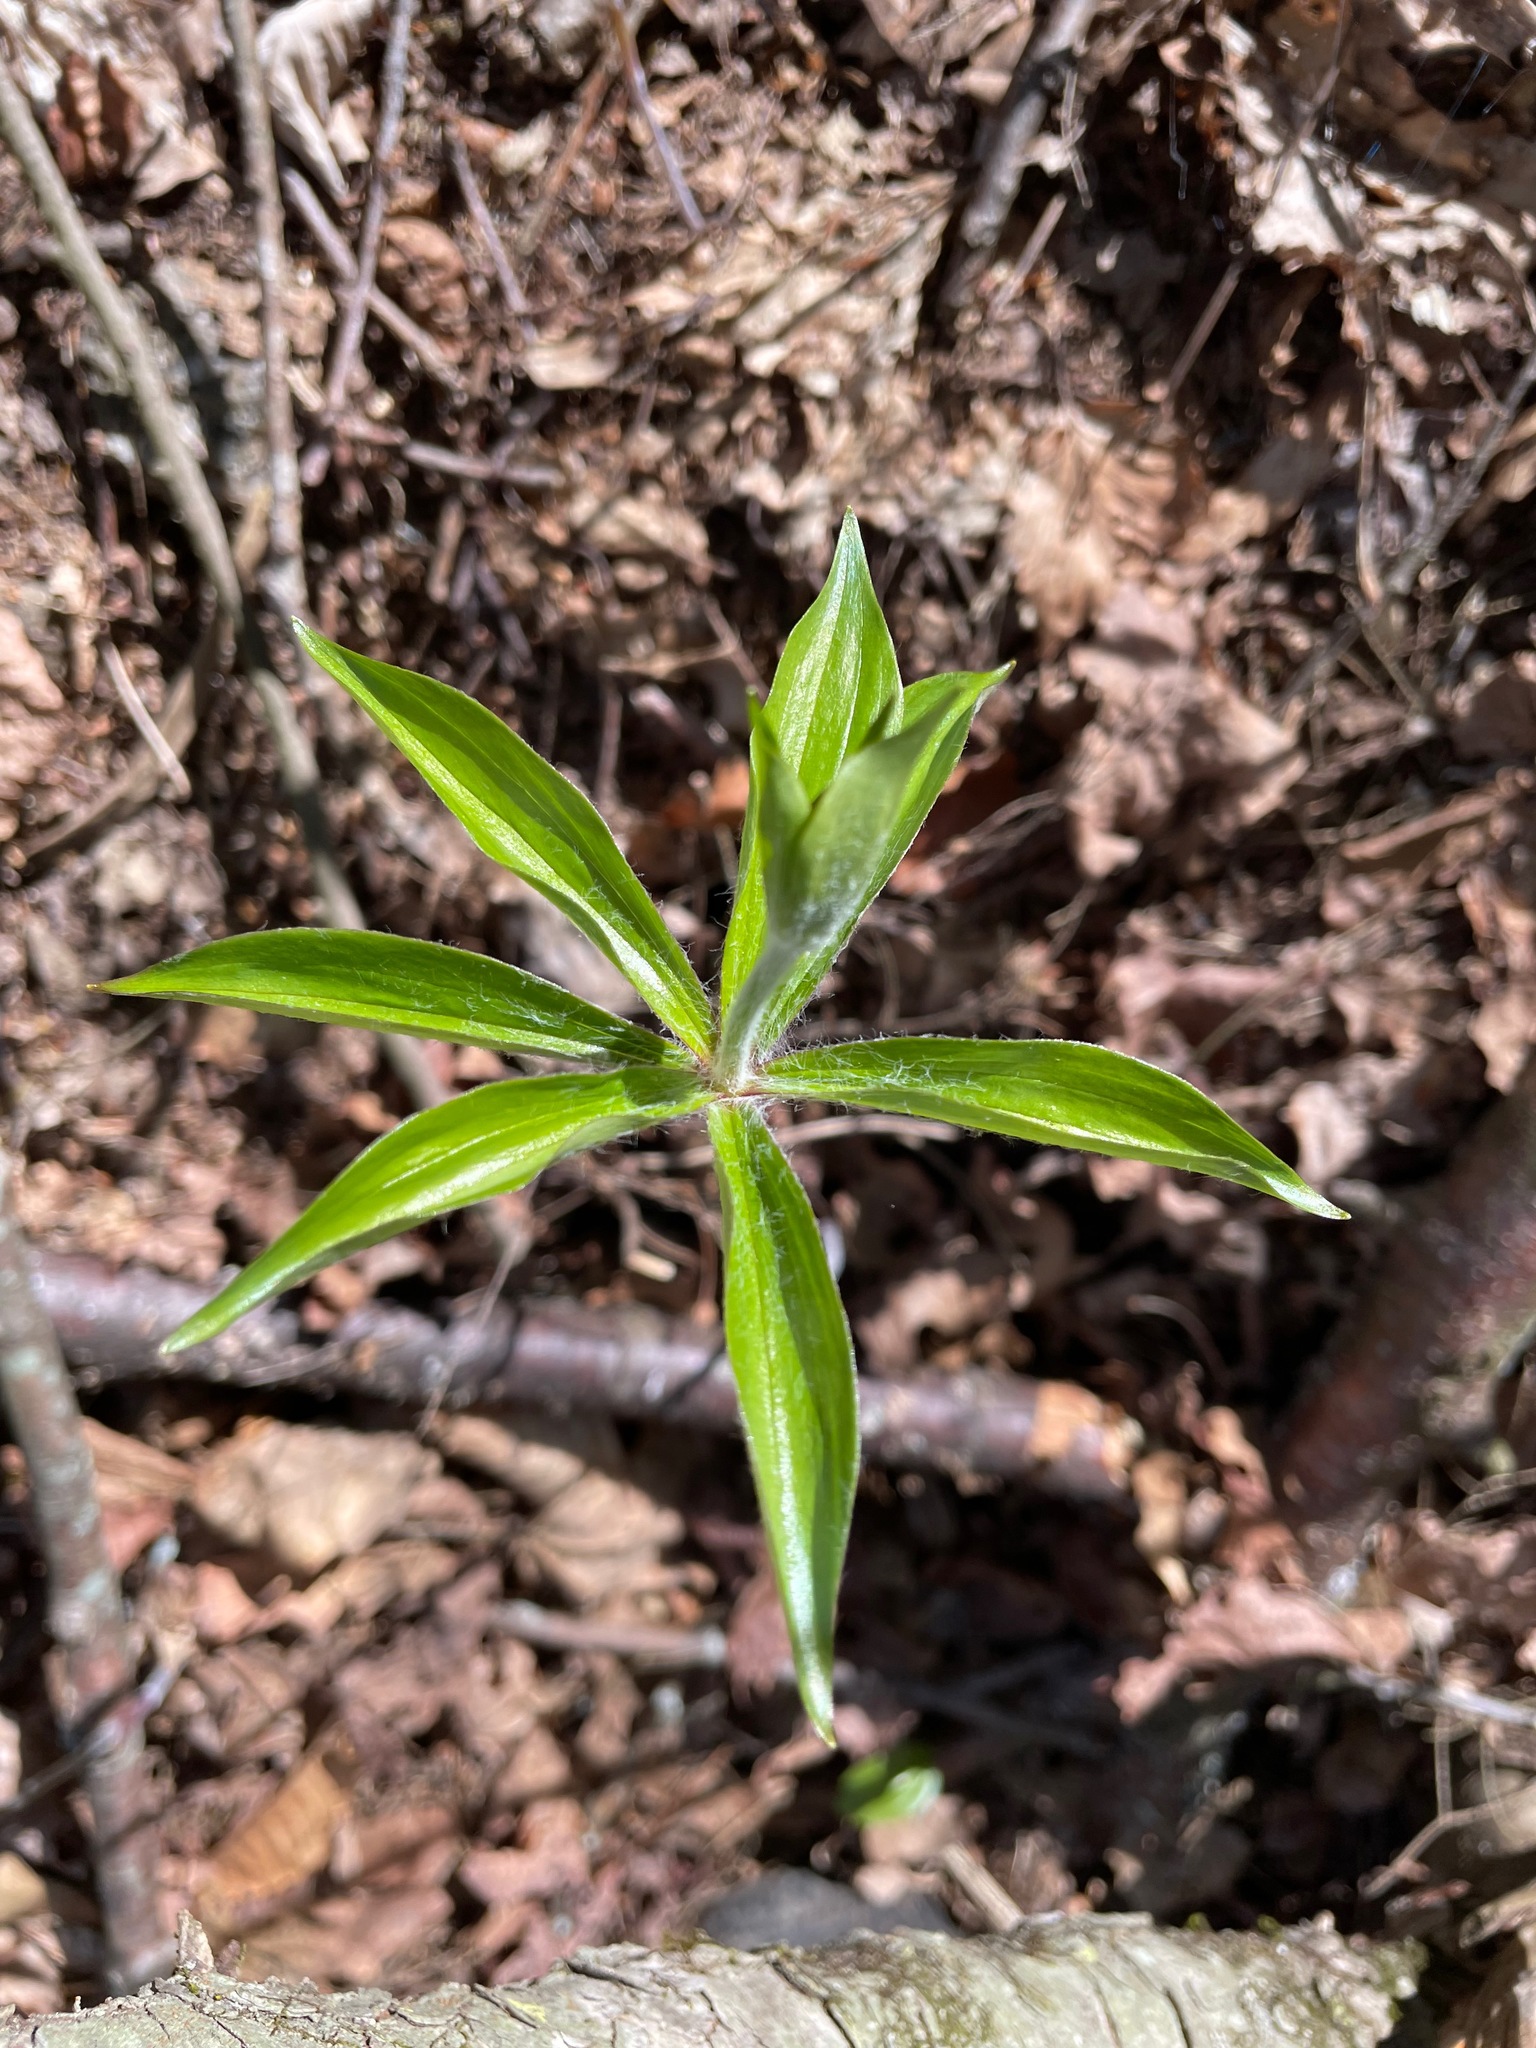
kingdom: Plantae
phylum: Tracheophyta
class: Liliopsida
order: Liliales
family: Liliaceae
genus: Medeola
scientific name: Medeola virginiana
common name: Indian cucumber-root
